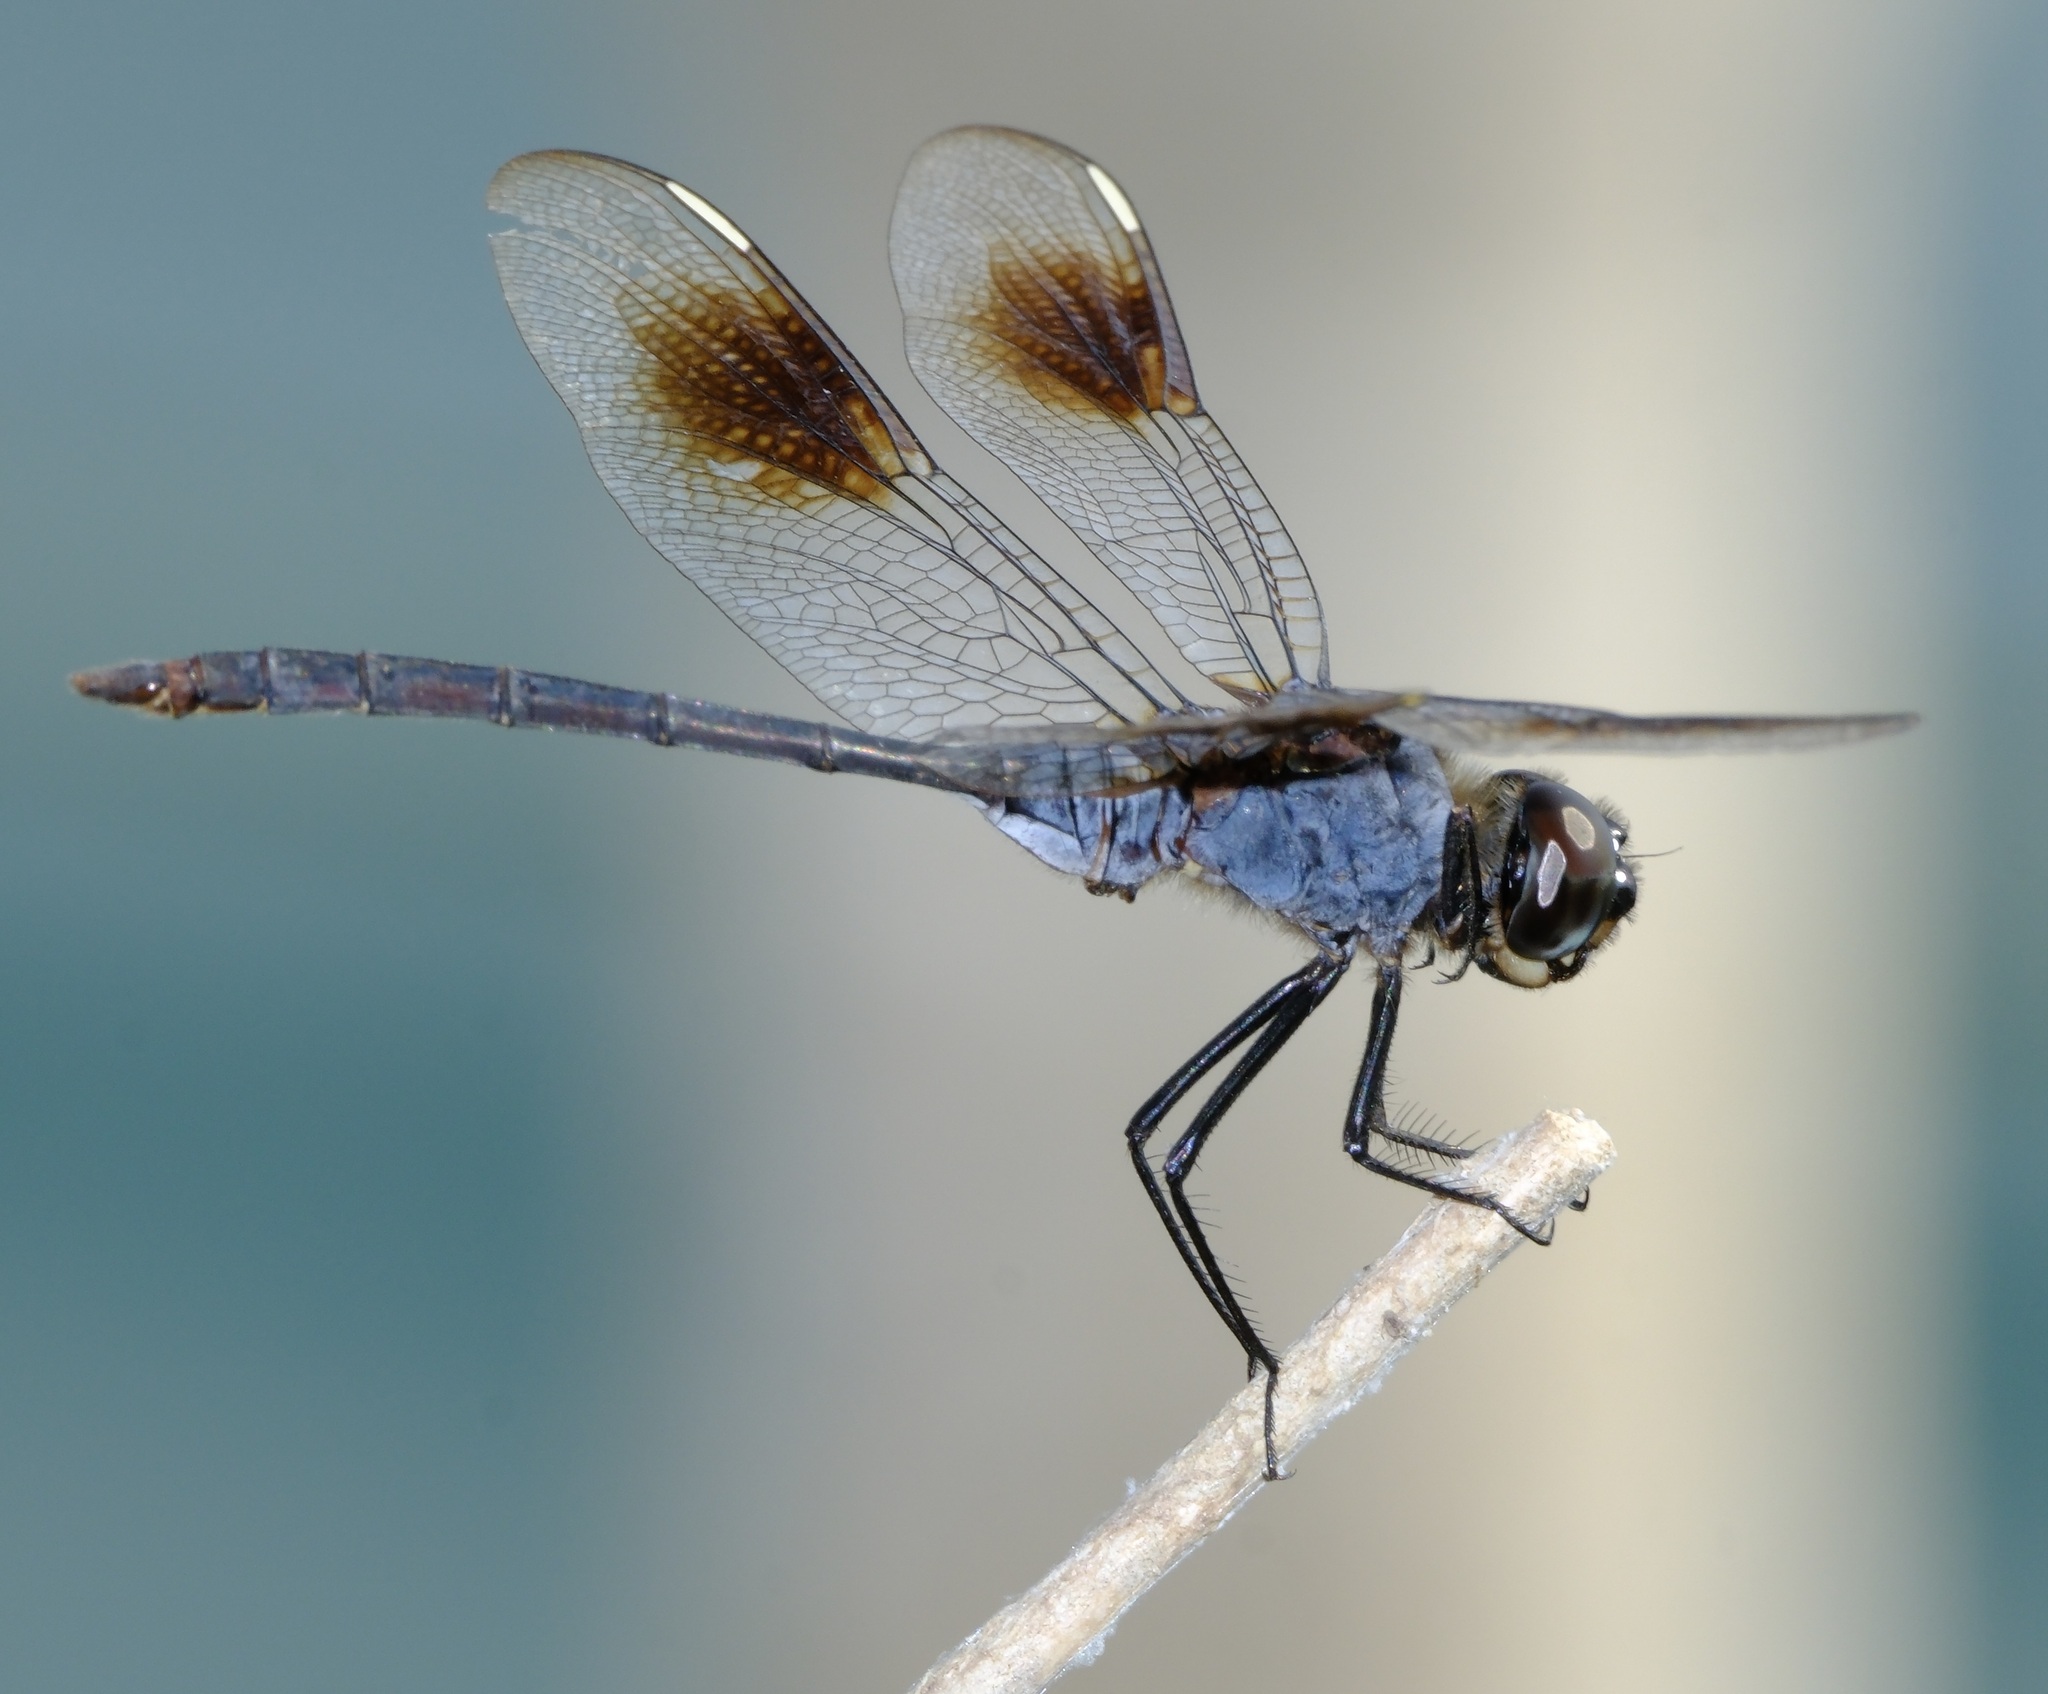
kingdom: Animalia
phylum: Arthropoda
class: Insecta
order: Odonata
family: Libellulidae
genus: Brachymesia
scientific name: Brachymesia gravida
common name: Four-spotted pennant
